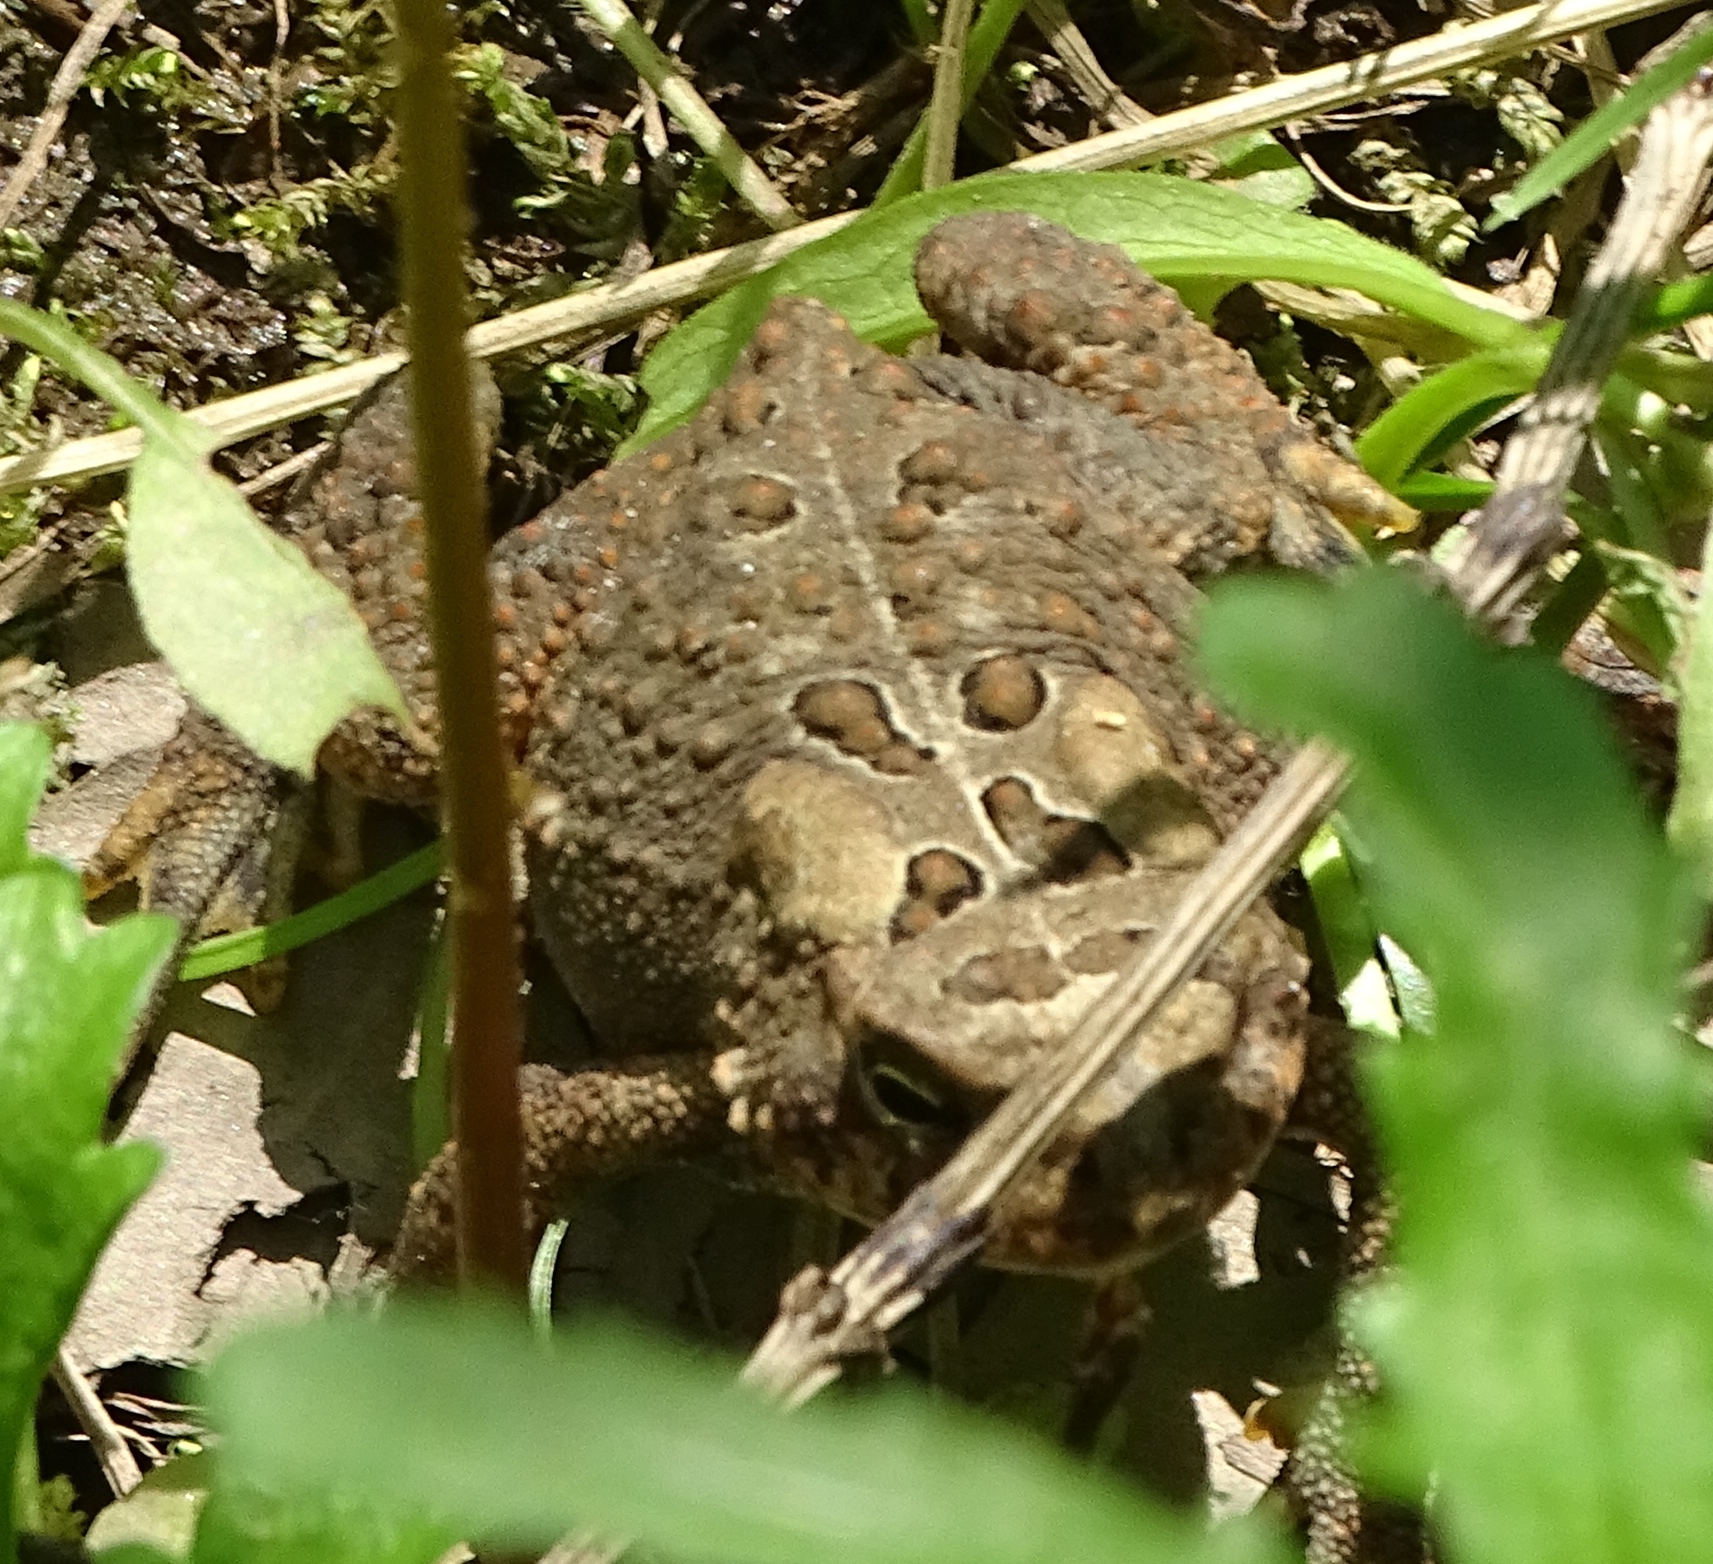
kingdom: Animalia
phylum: Chordata
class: Amphibia
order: Anura
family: Bufonidae
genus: Anaxyrus
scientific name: Anaxyrus americanus
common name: American toad
